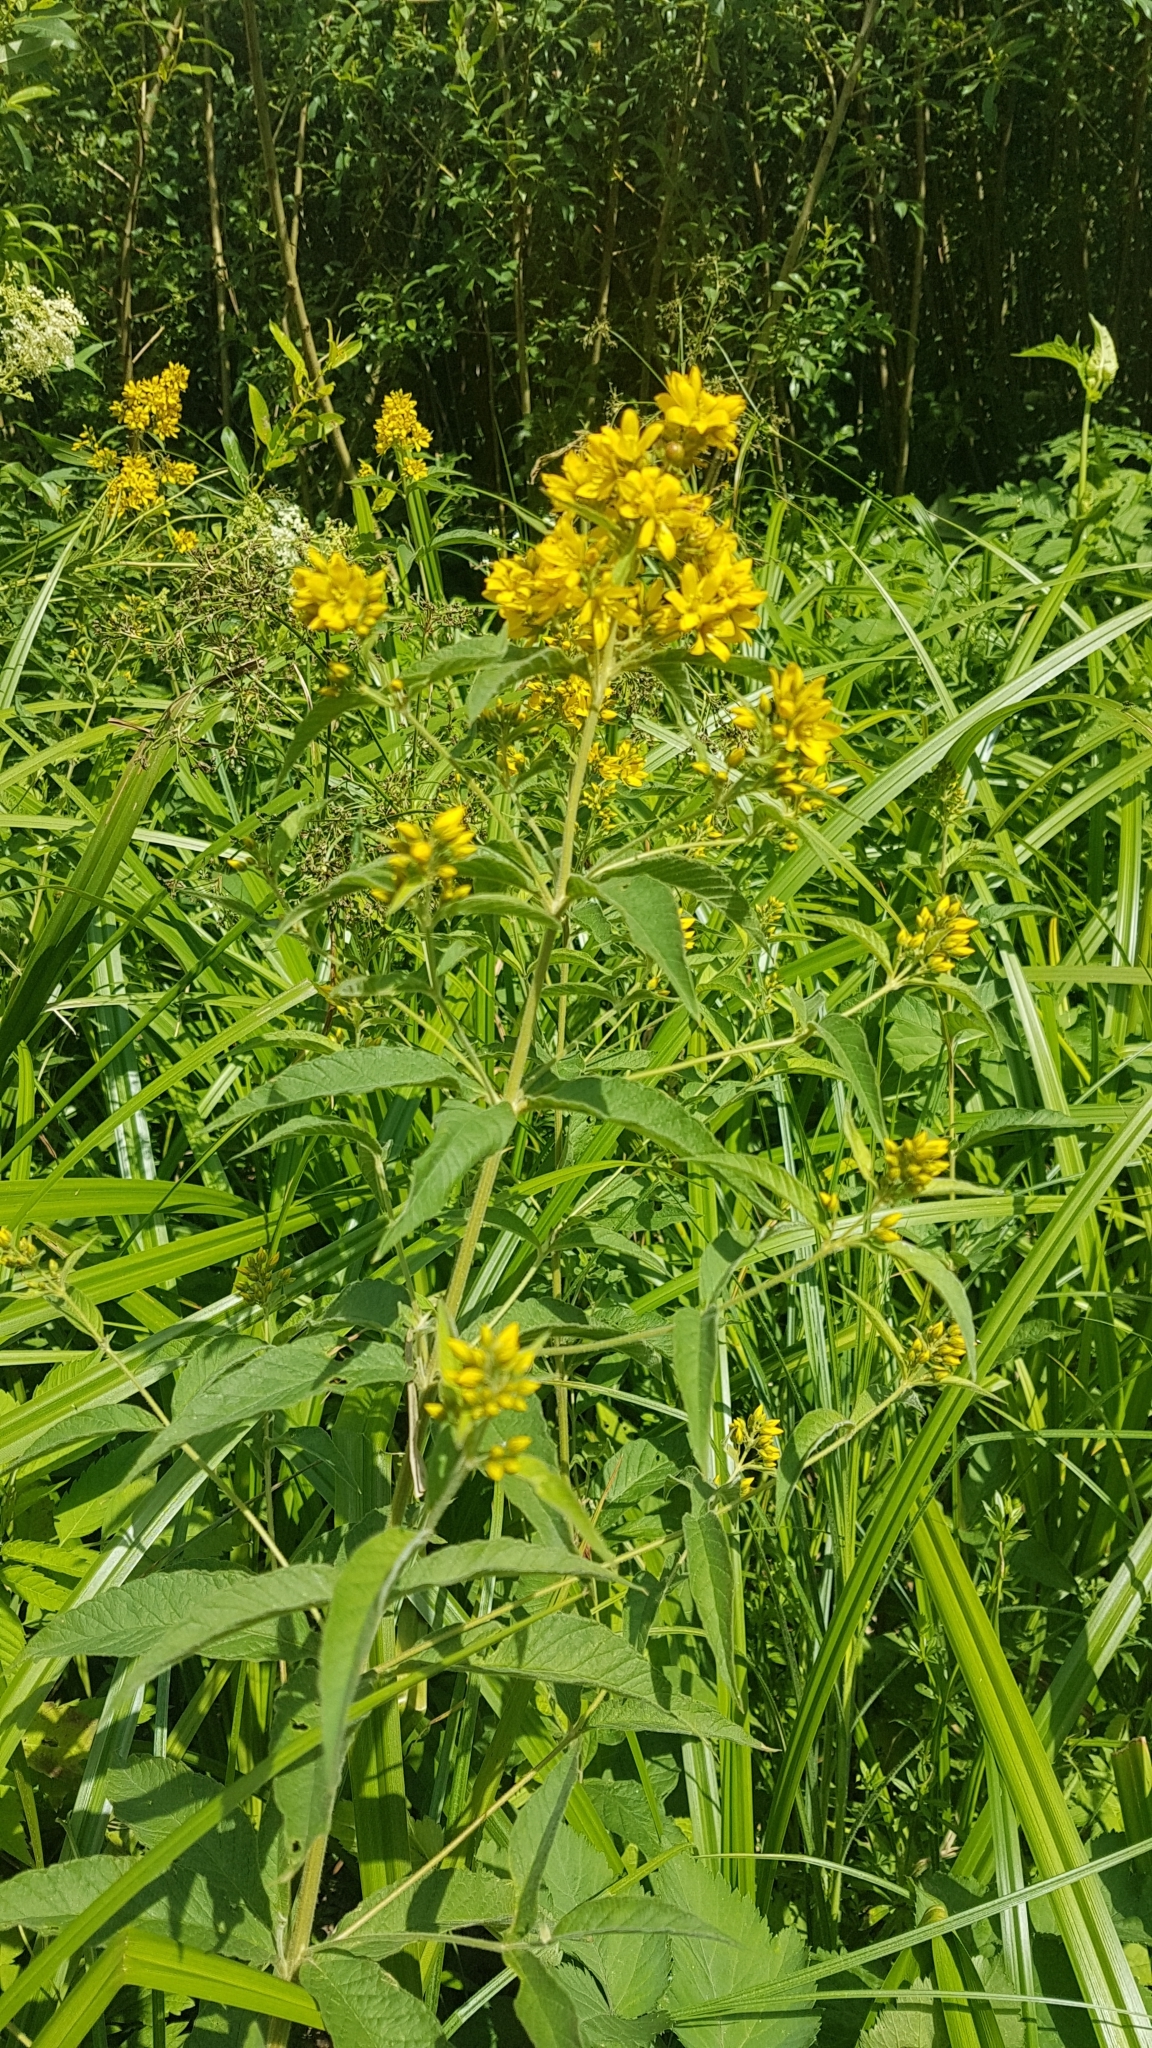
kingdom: Plantae
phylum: Tracheophyta
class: Magnoliopsida
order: Ericales
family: Primulaceae
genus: Lysimachia
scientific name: Lysimachia vulgaris
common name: Yellow loosestrife
